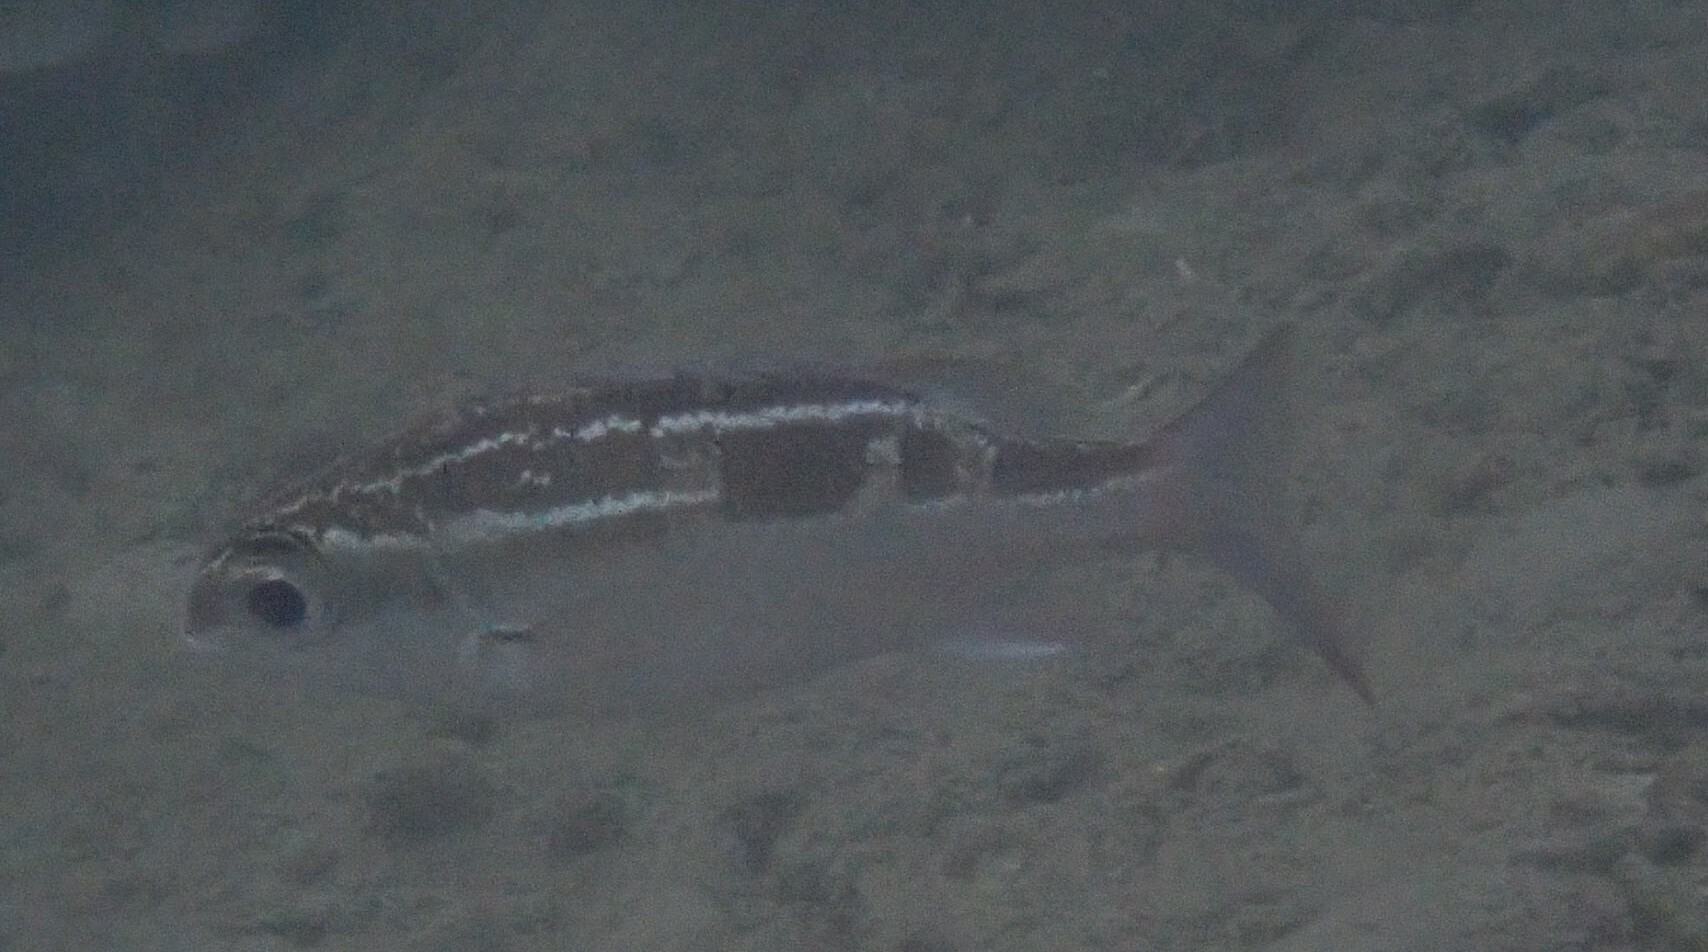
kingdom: Animalia
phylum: Chordata
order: Perciformes
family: Nemipteridae
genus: Scolopsis
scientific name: Scolopsis lineata
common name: Striped monocle bream
